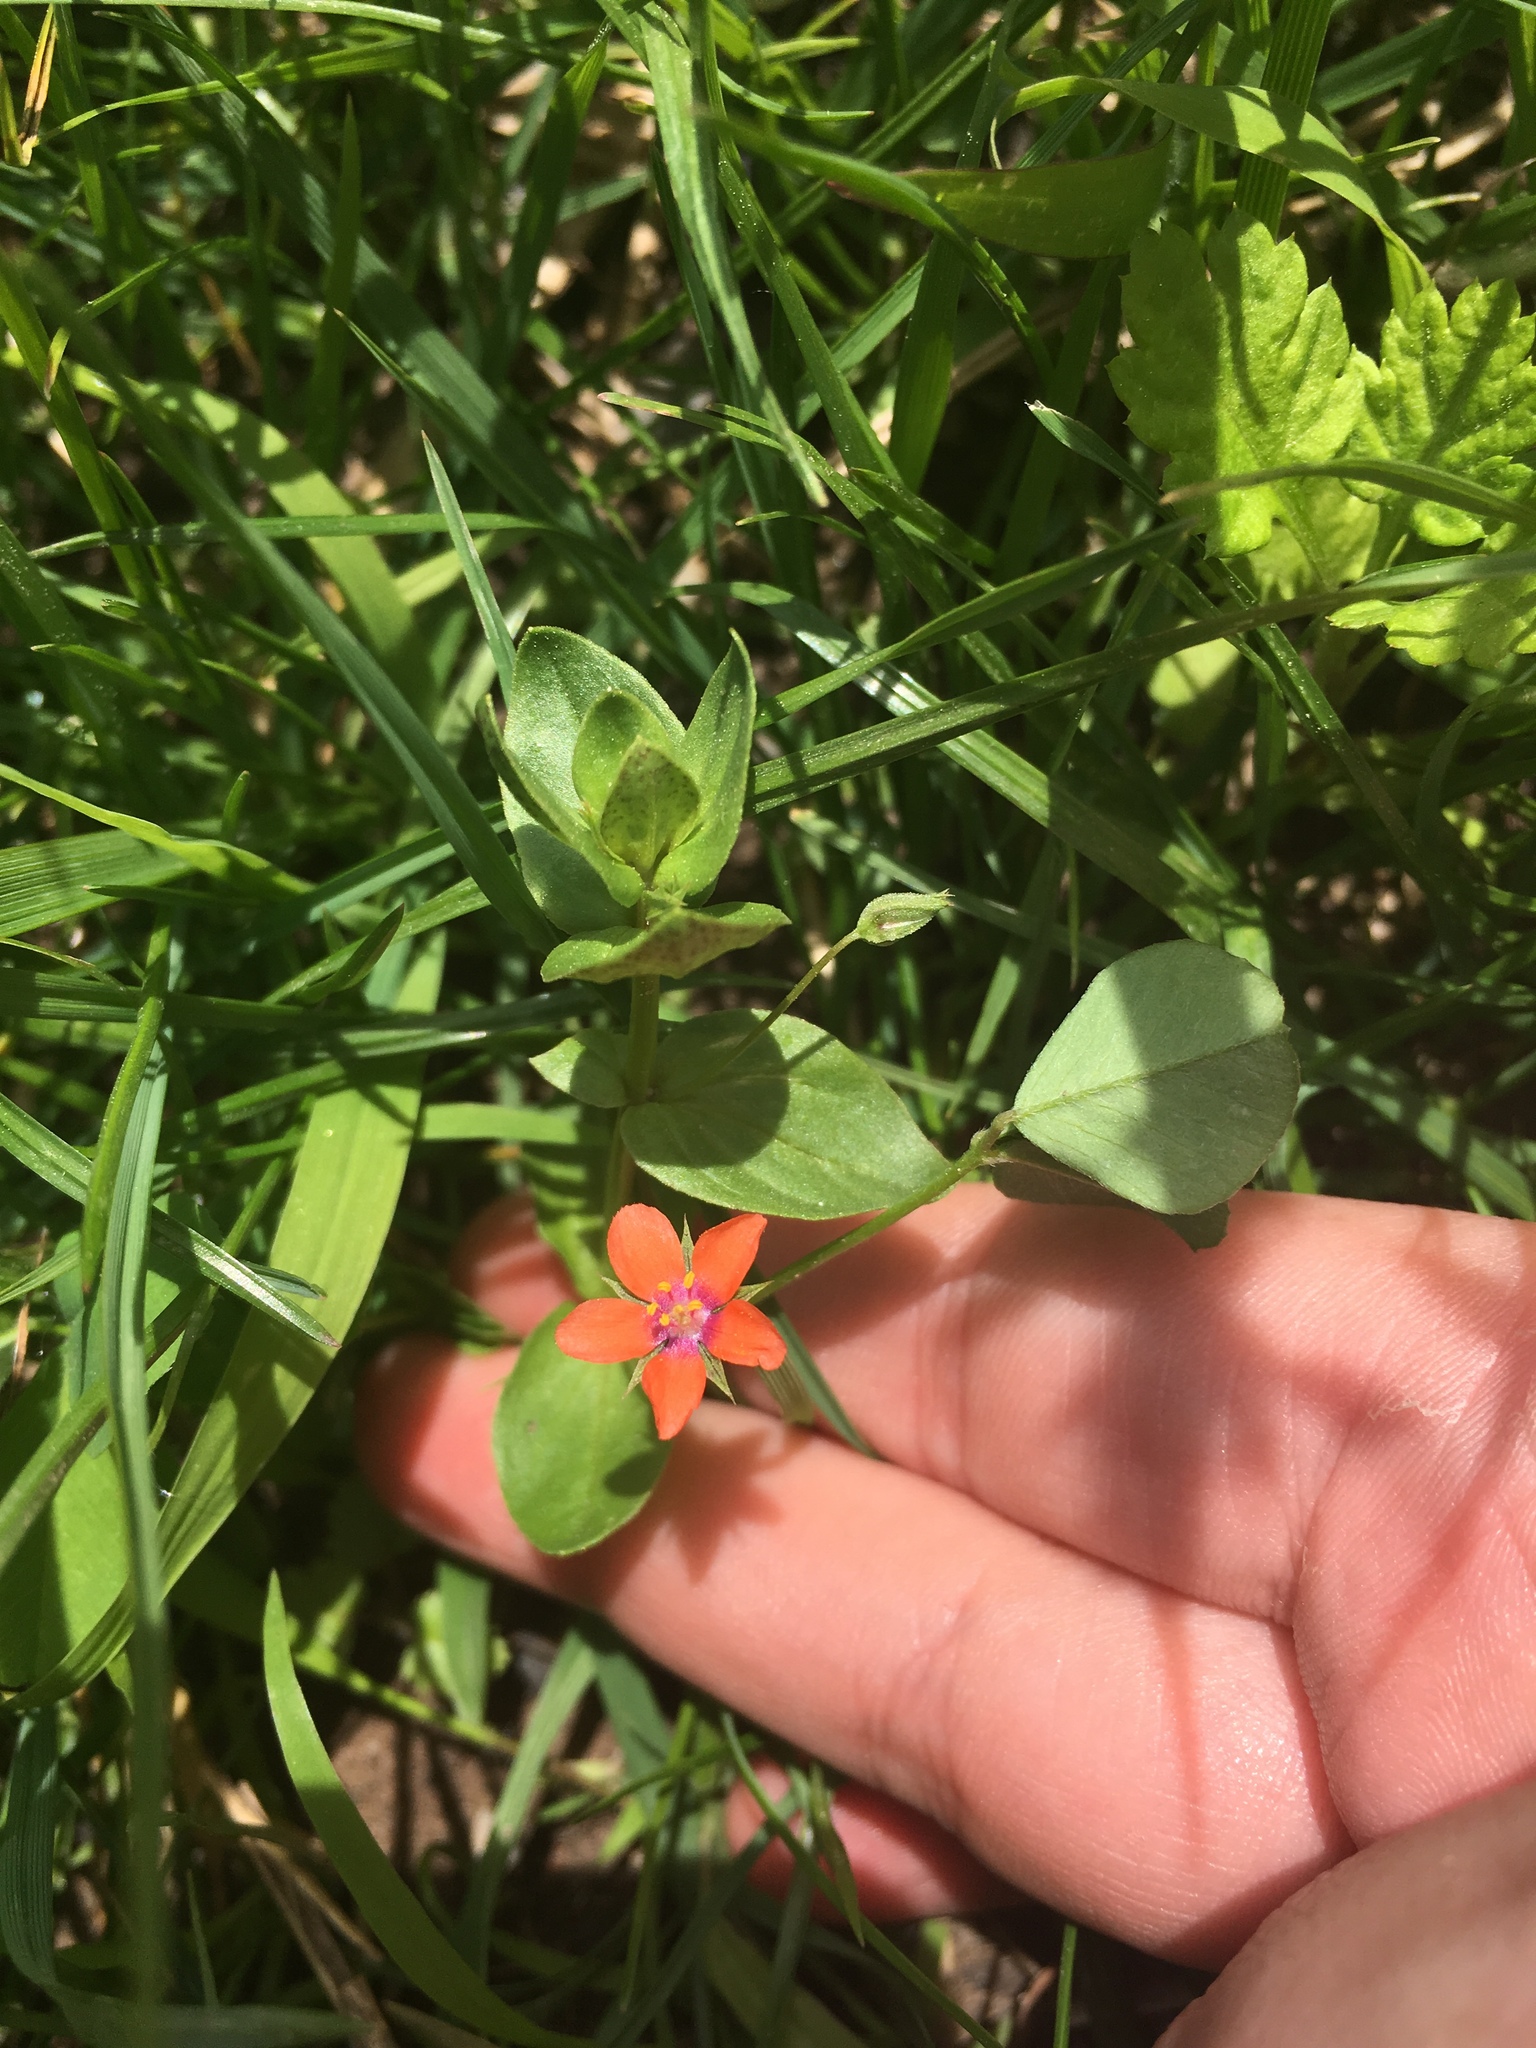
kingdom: Plantae
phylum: Tracheophyta
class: Magnoliopsida
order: Ericales
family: Primulaceae
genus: Lysimachia
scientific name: Lysimachia arvensis
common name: Scarlet pimpernel
